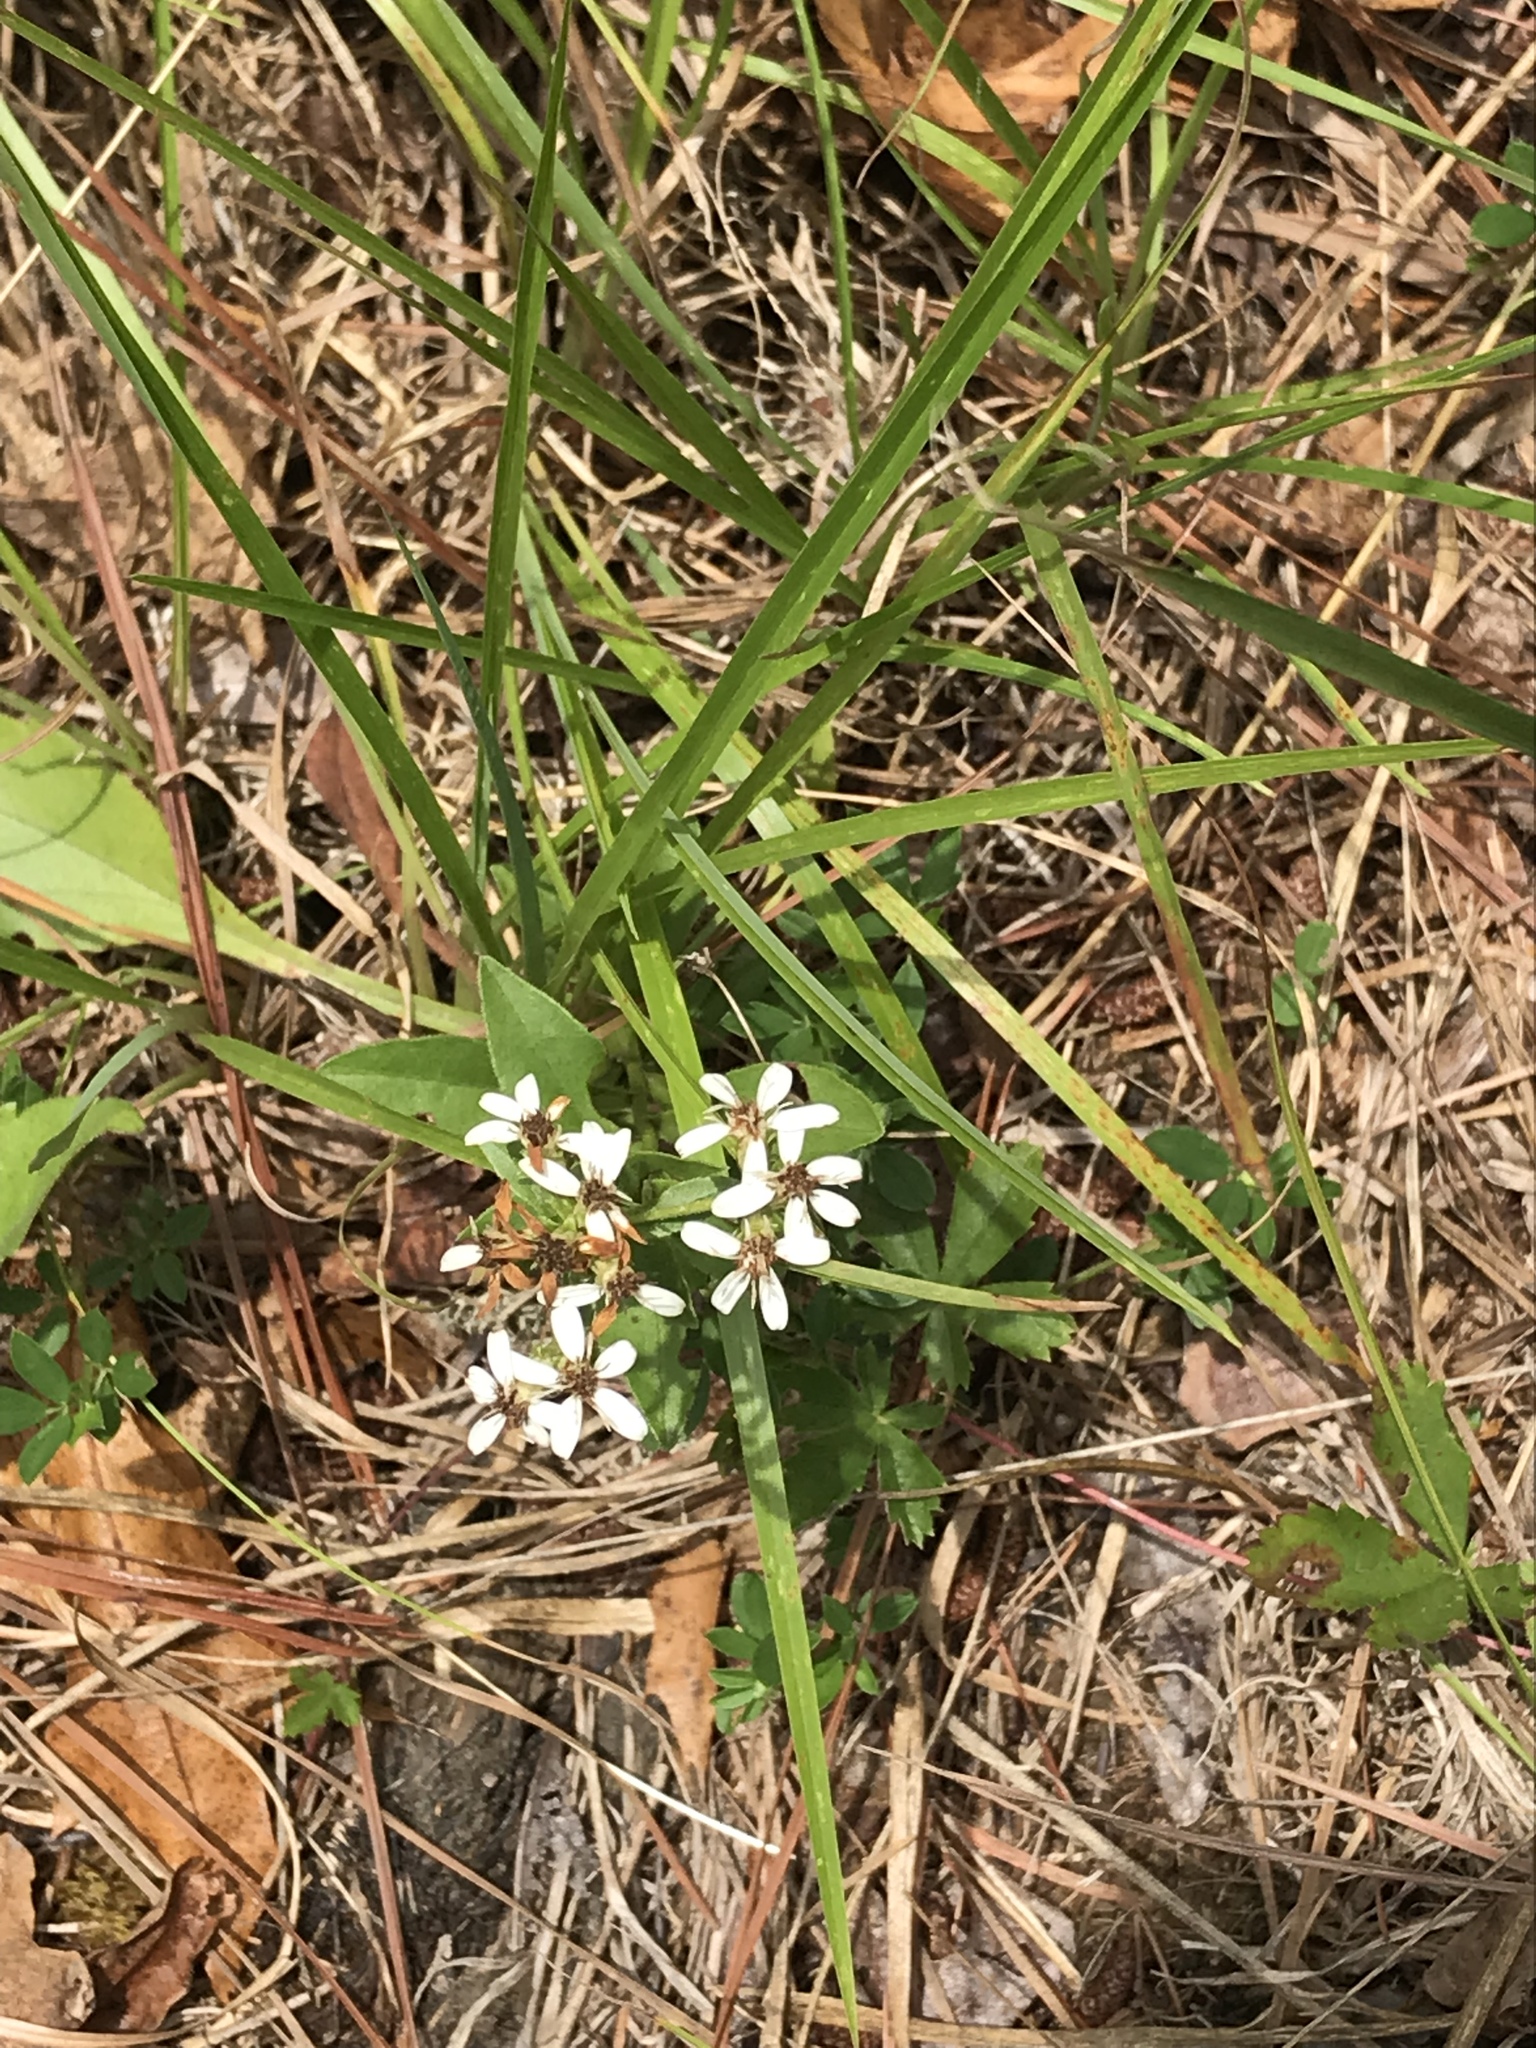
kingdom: Plantae
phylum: Tracheophyta
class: Magnoliopsida
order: Asterales
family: Asteraceae
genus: Sericocarpus
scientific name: Sericocarpus asteroides
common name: Toothed white-top aster
